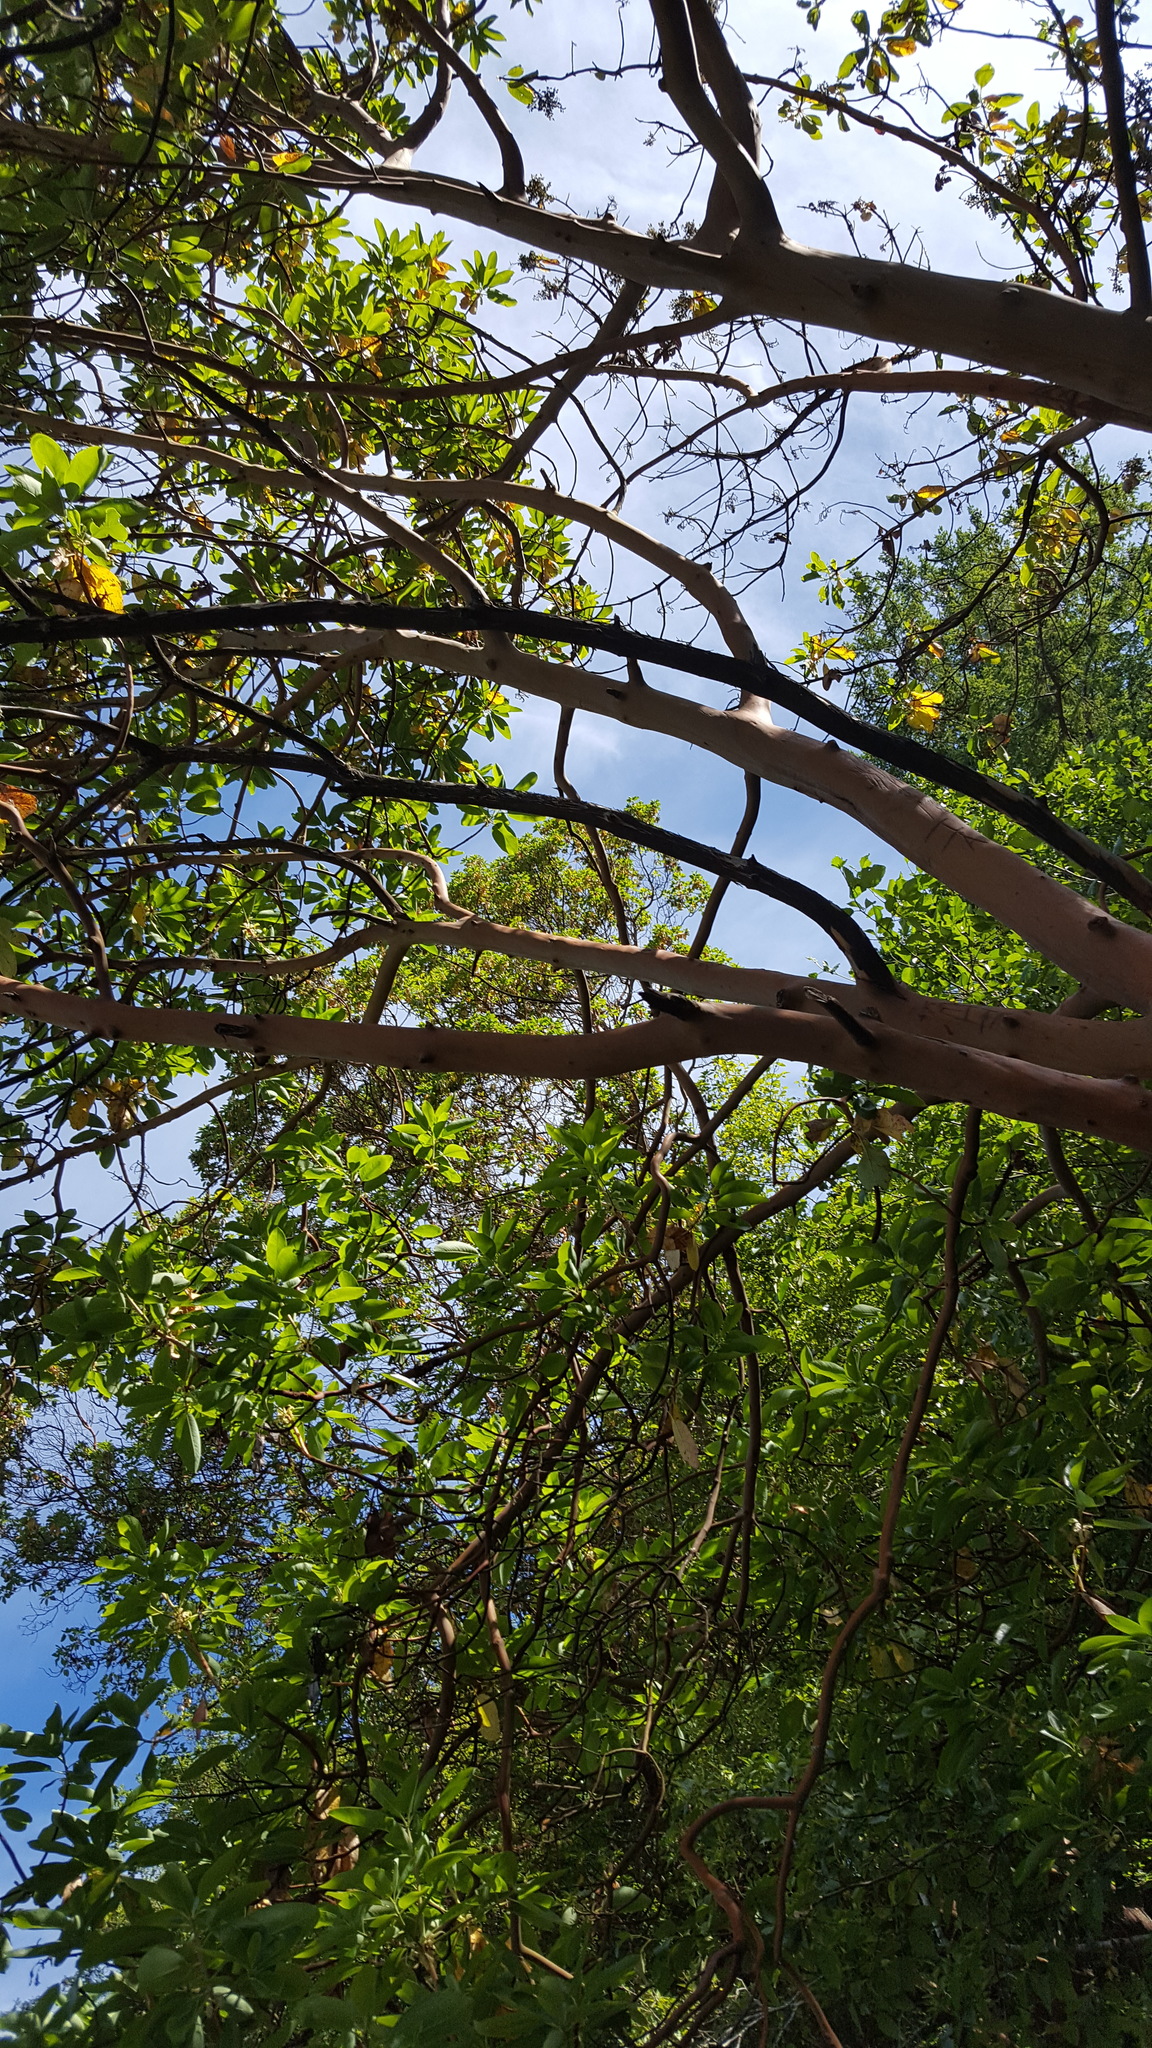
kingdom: Plantae
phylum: Tracheophyta
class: Magnoliopsida
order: Ericales
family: Ericaceae
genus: Arbutus
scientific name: Arbutus menziesii
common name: Pacific madrone
